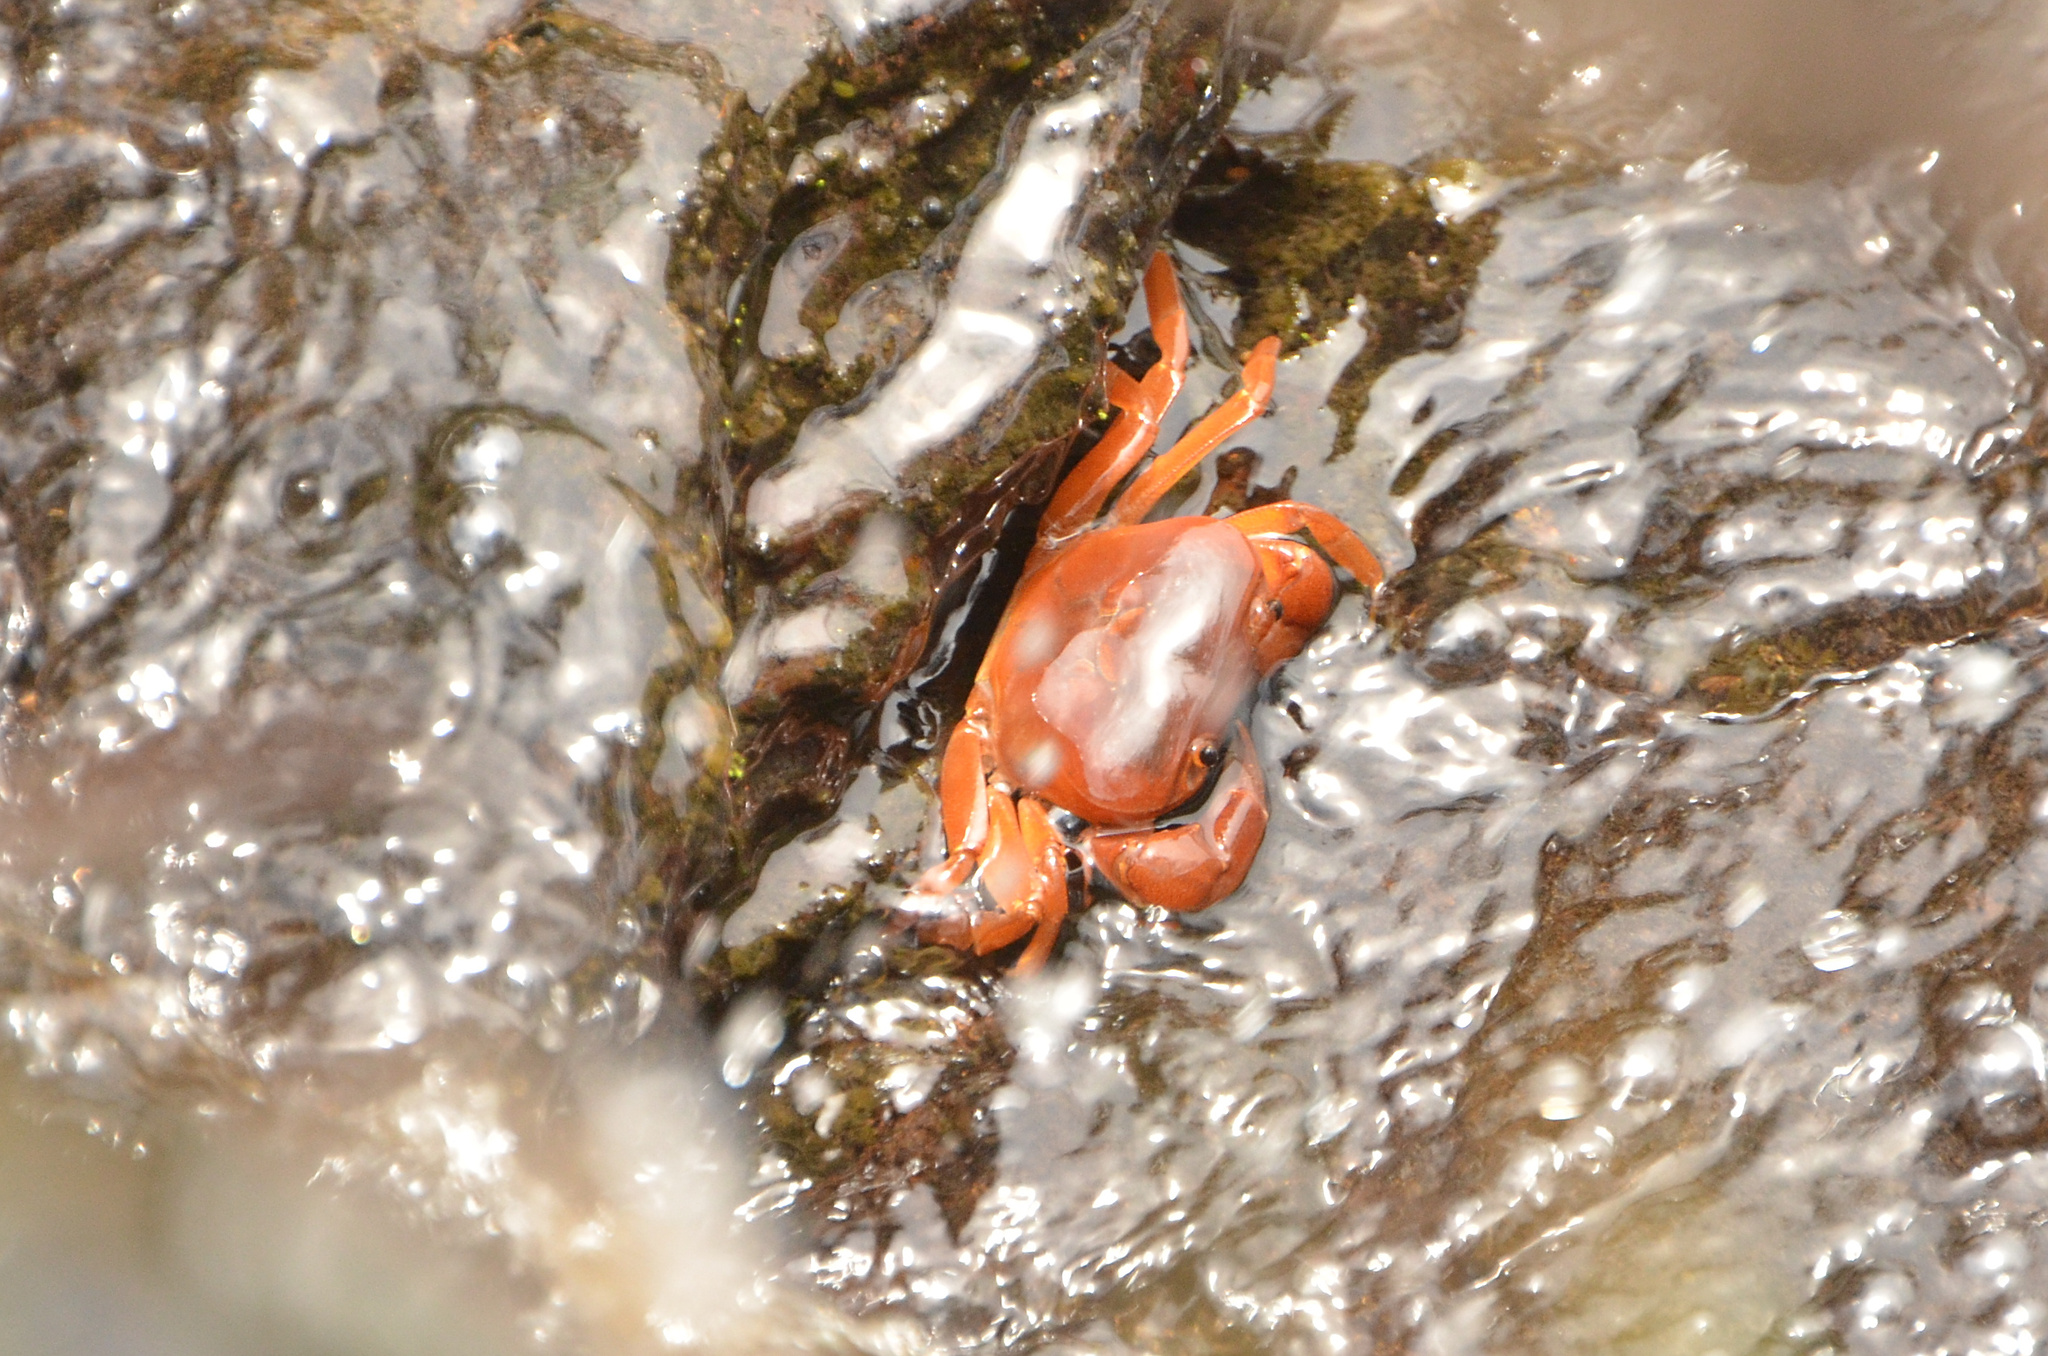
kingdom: Animalia
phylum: Arthropoda
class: Malacostraca
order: Decapoda
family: Potamonautidae
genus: Potamonautes
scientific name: Potamonautes clarus
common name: Bright river crab
